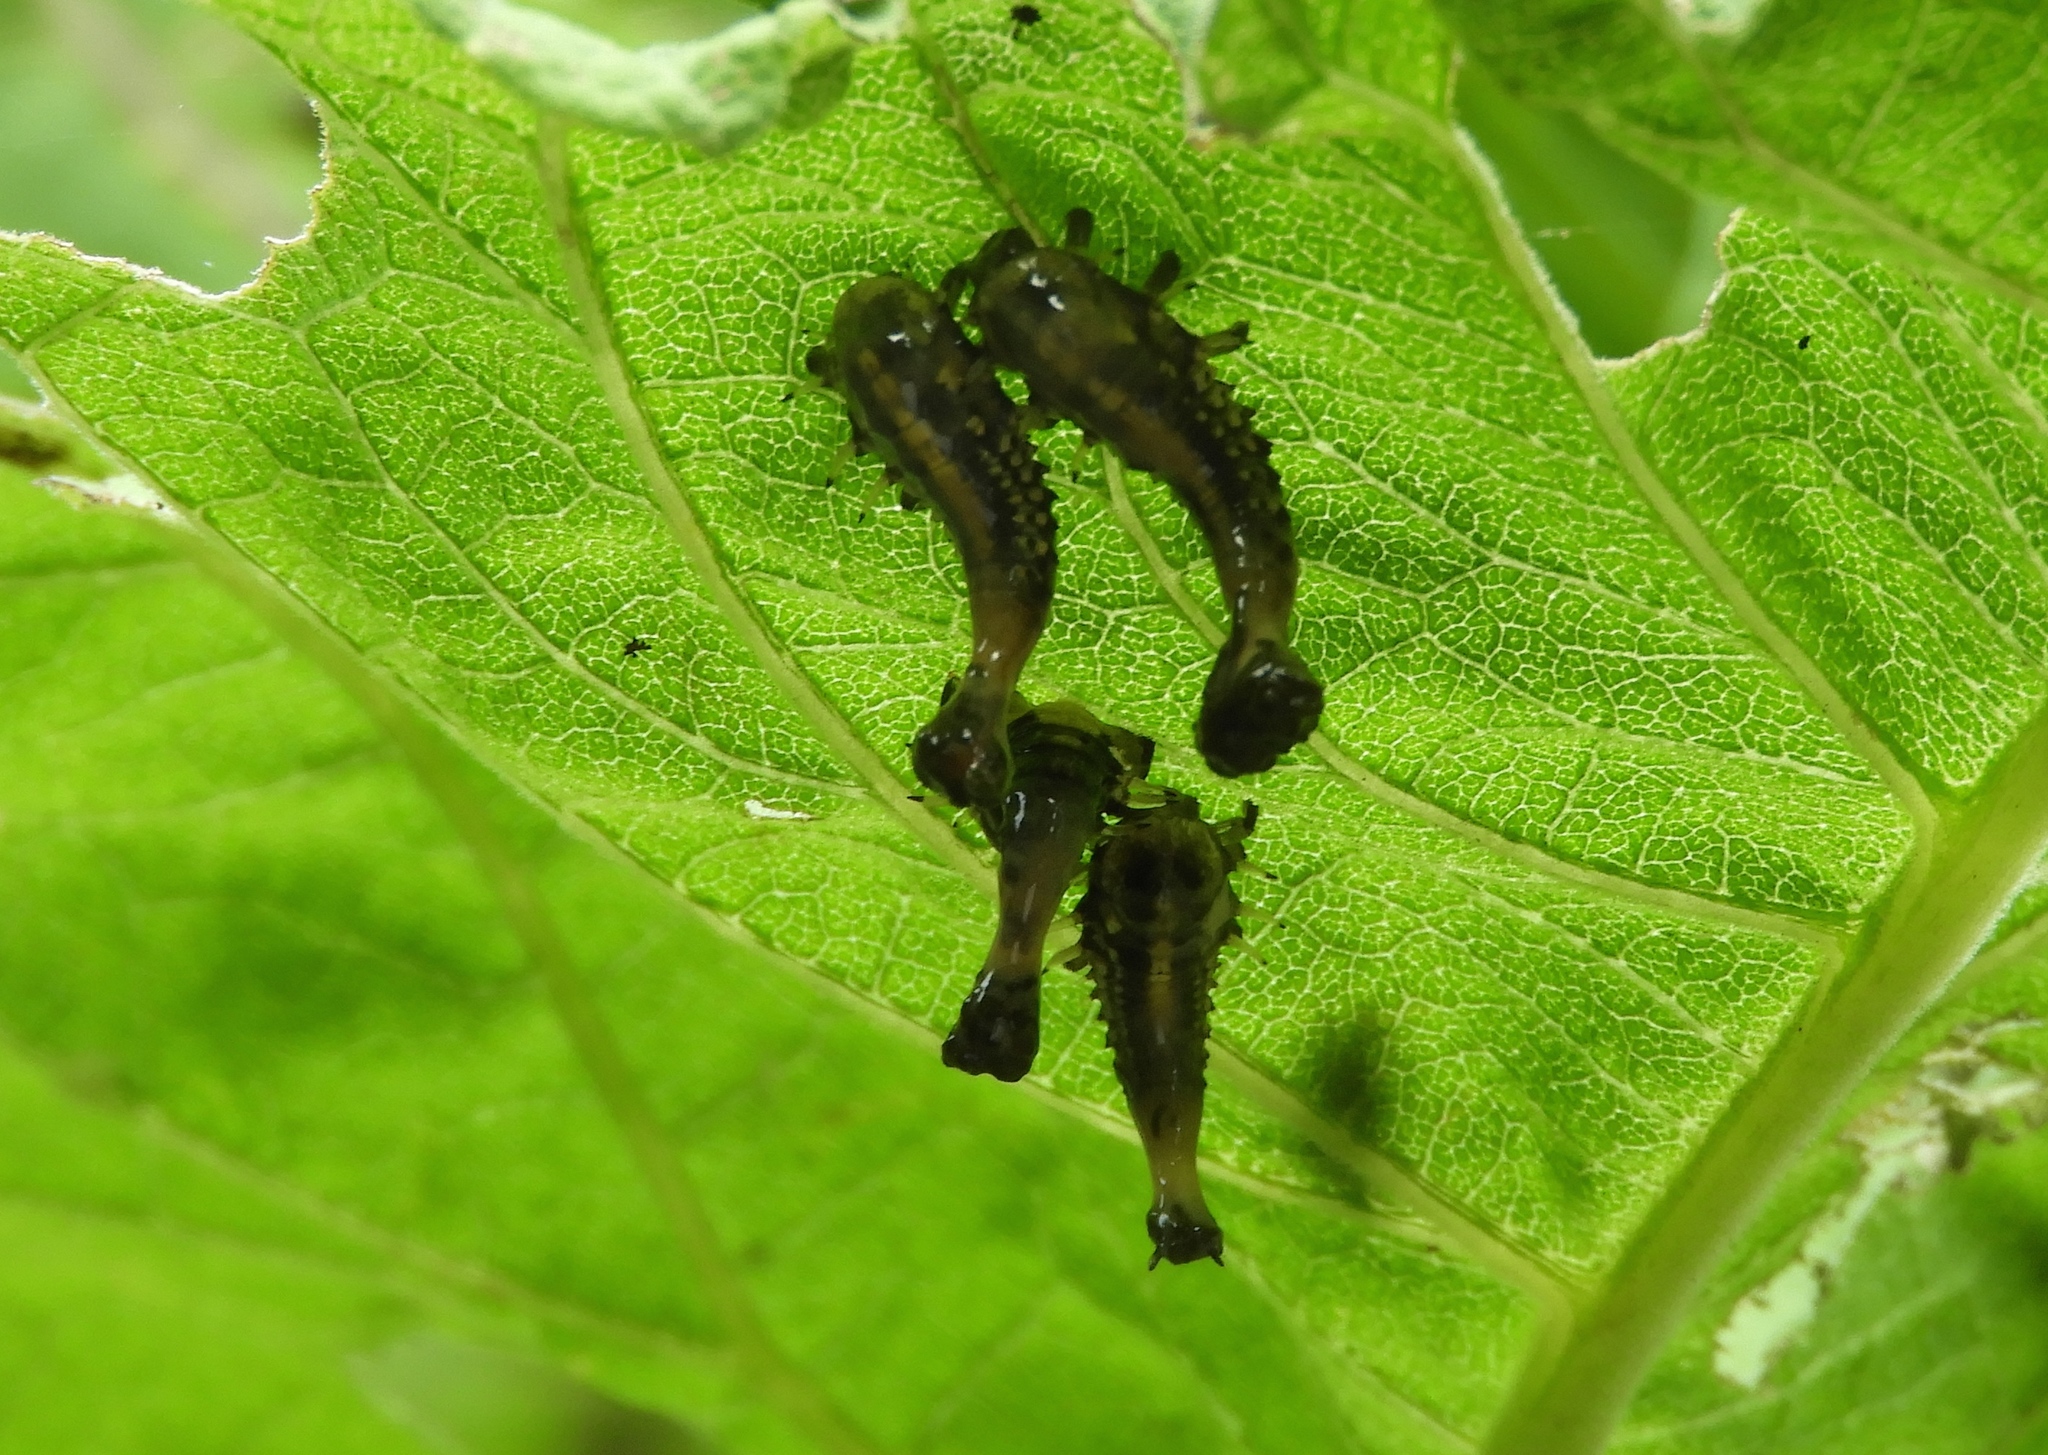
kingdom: Animalia
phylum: Arthropoda
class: Insecta
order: Coleoptera
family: Chrysomelidae
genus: Physonota
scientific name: Physonota
